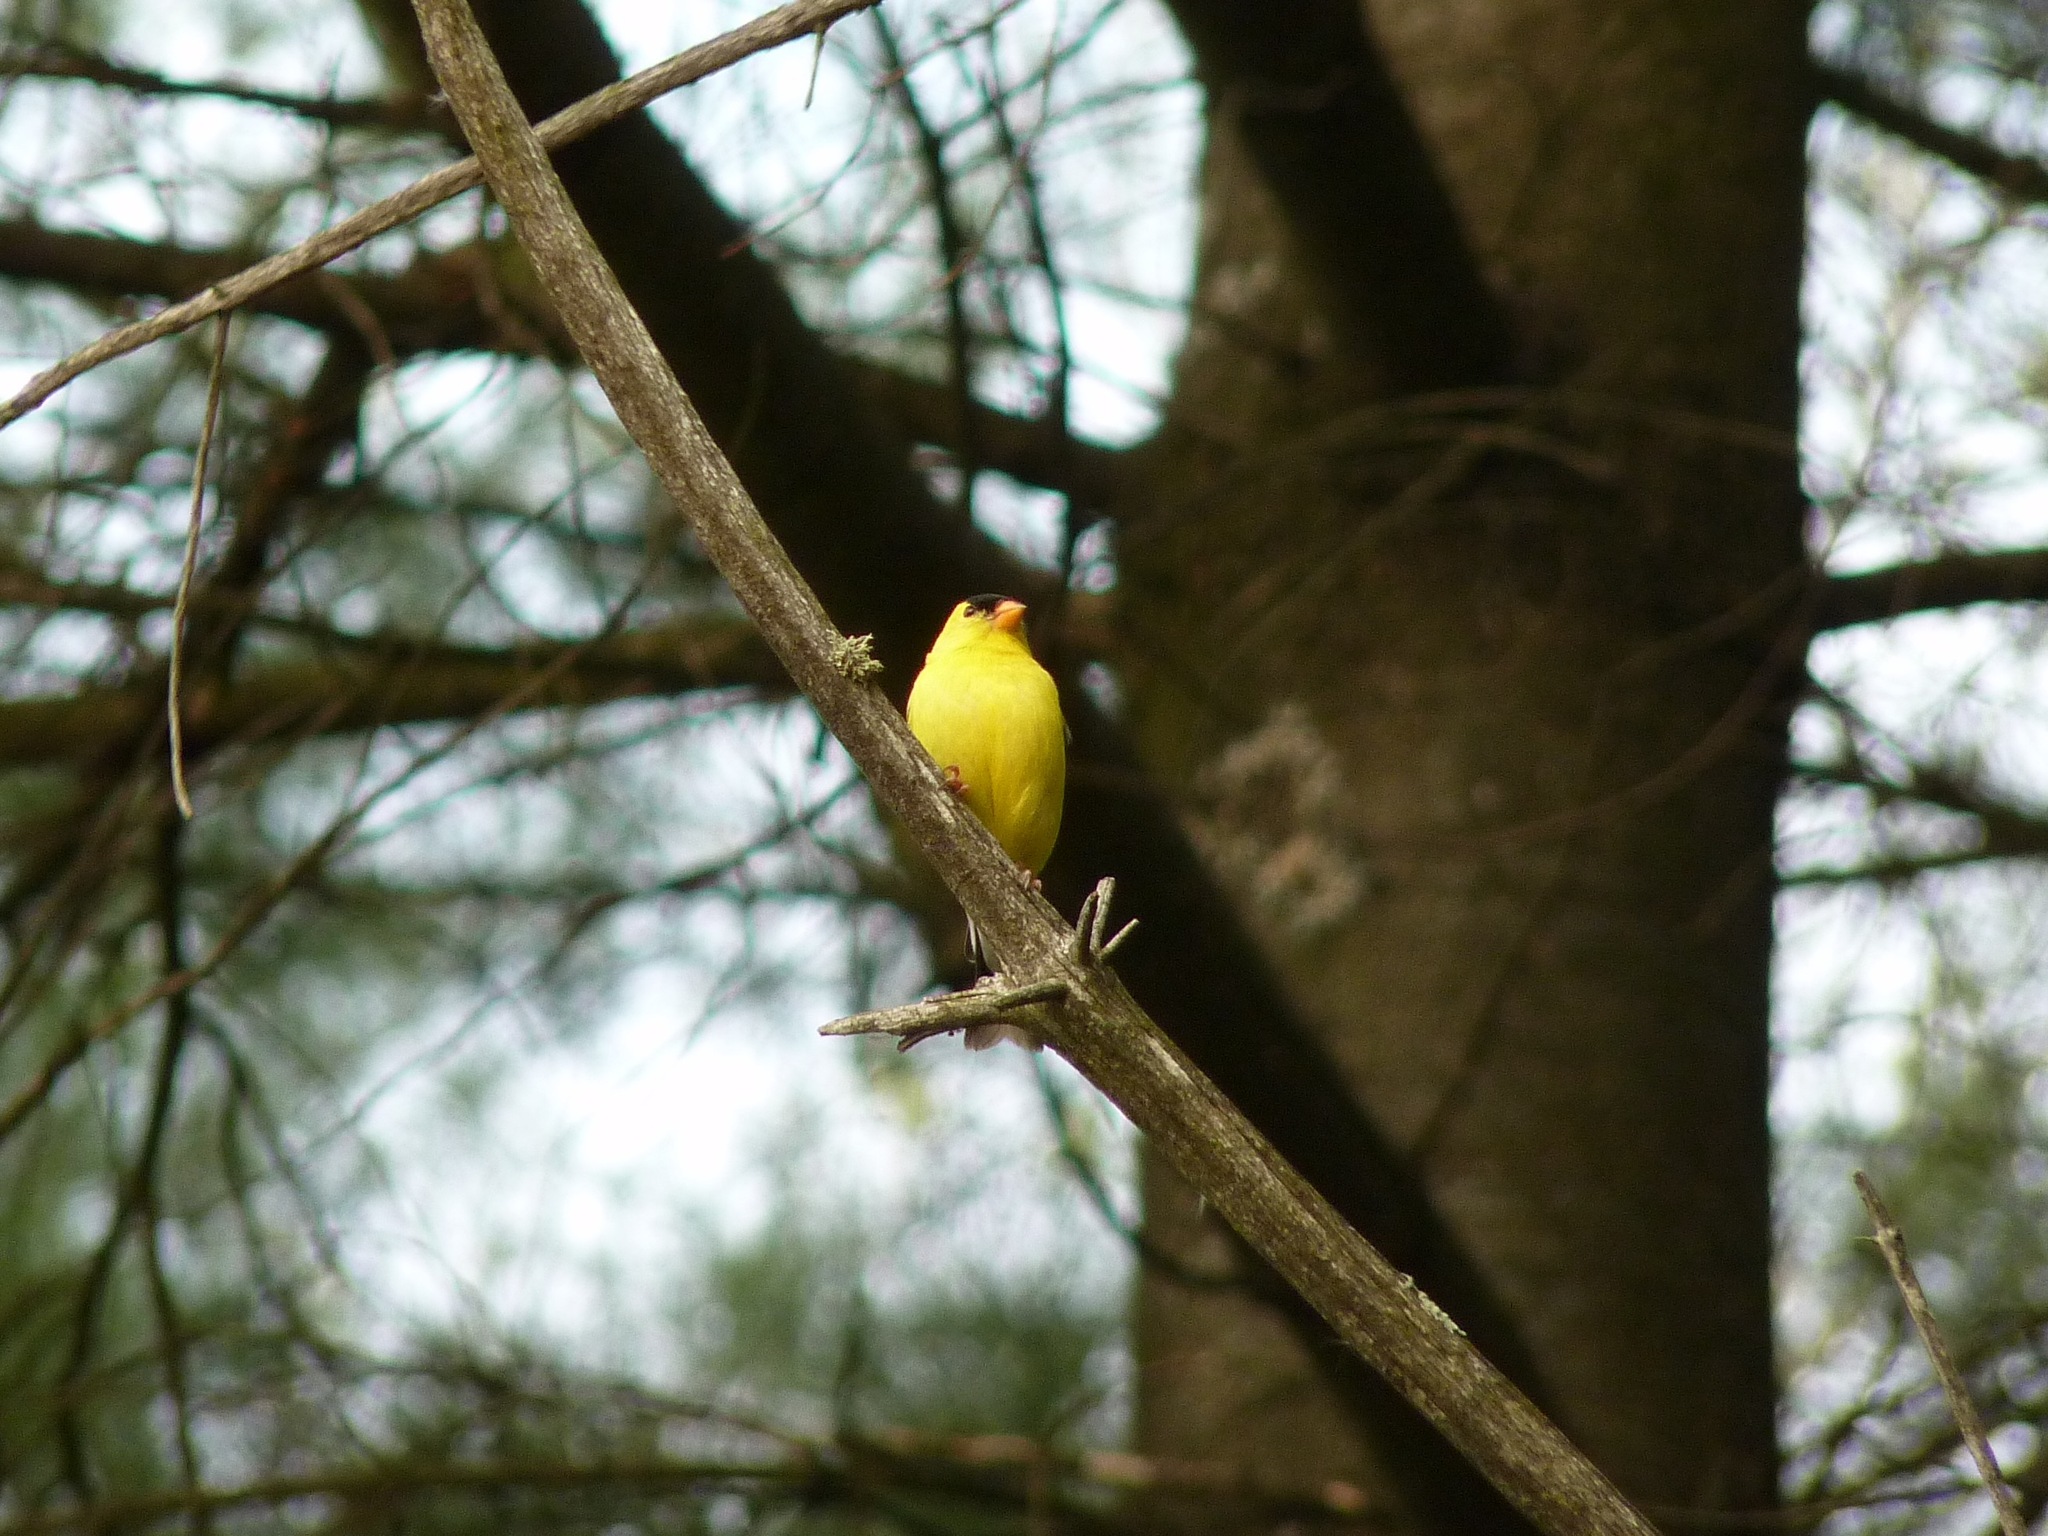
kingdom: Animalia
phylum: Chordata
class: Aves
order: Passeriformes
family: Fringillidae
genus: Spinus
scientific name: Spinus tristis
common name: American goldfinch
